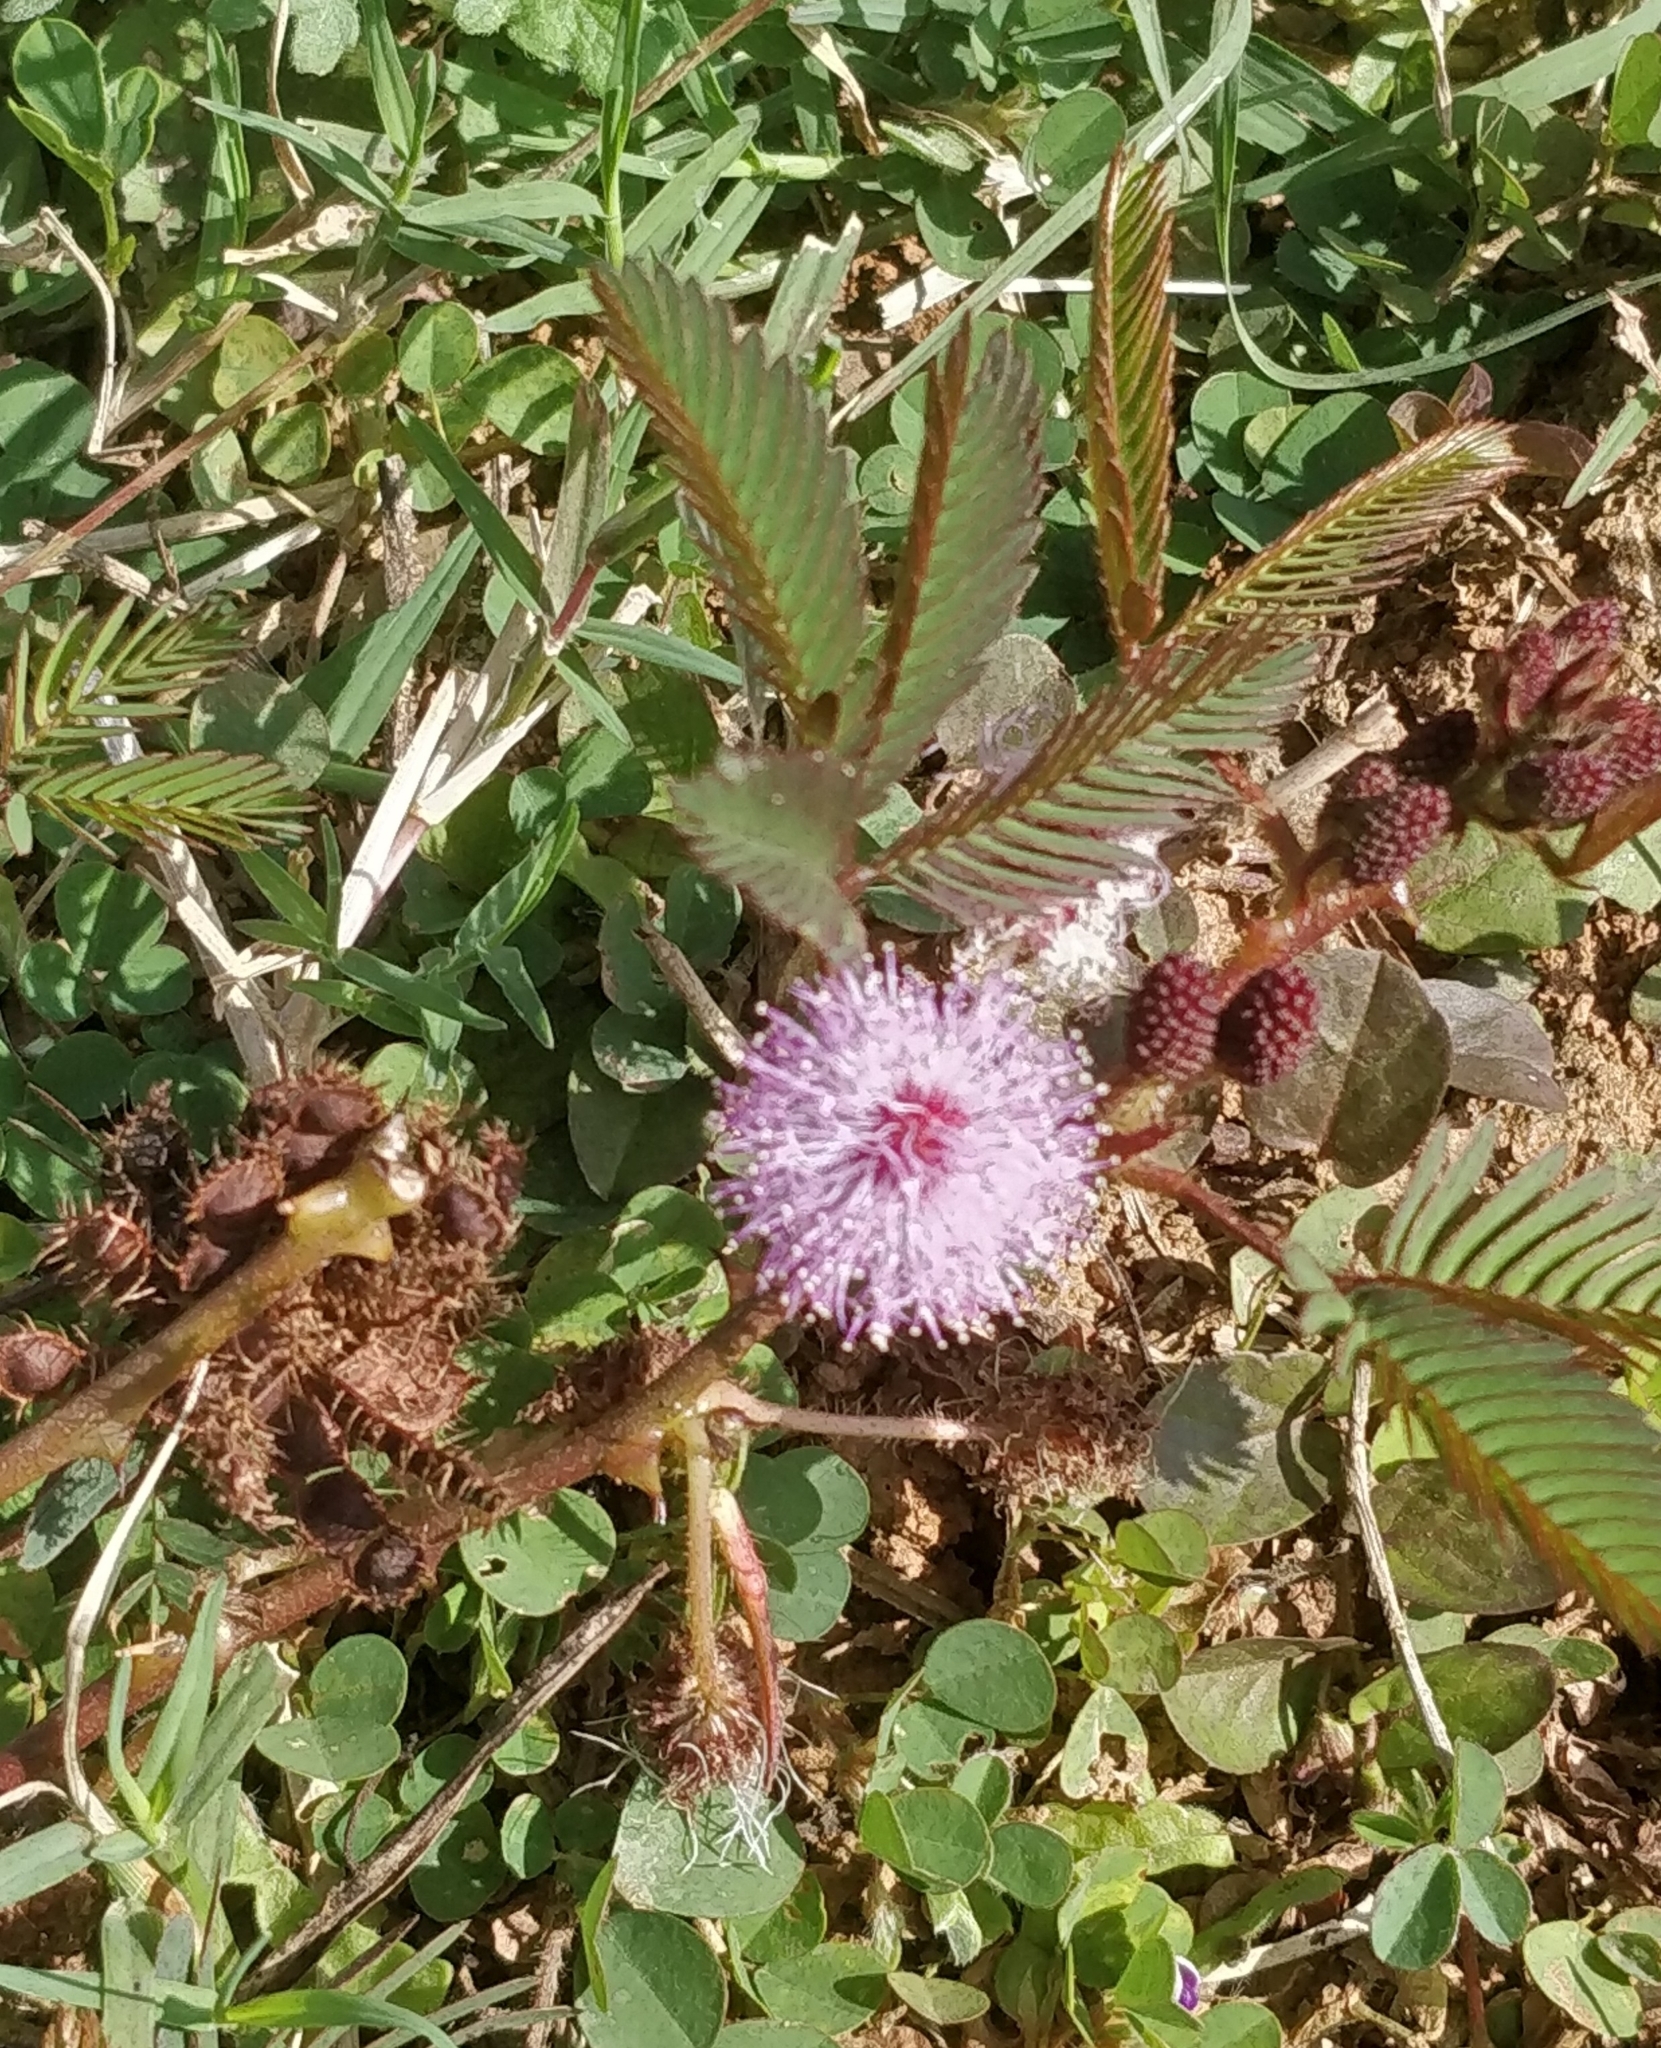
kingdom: Plantae
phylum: Tracheophyta
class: Magnoliopsida
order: Fabales
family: Fabaceae
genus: Mimosa
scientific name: Mimosa pudica
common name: Sensitive plant
